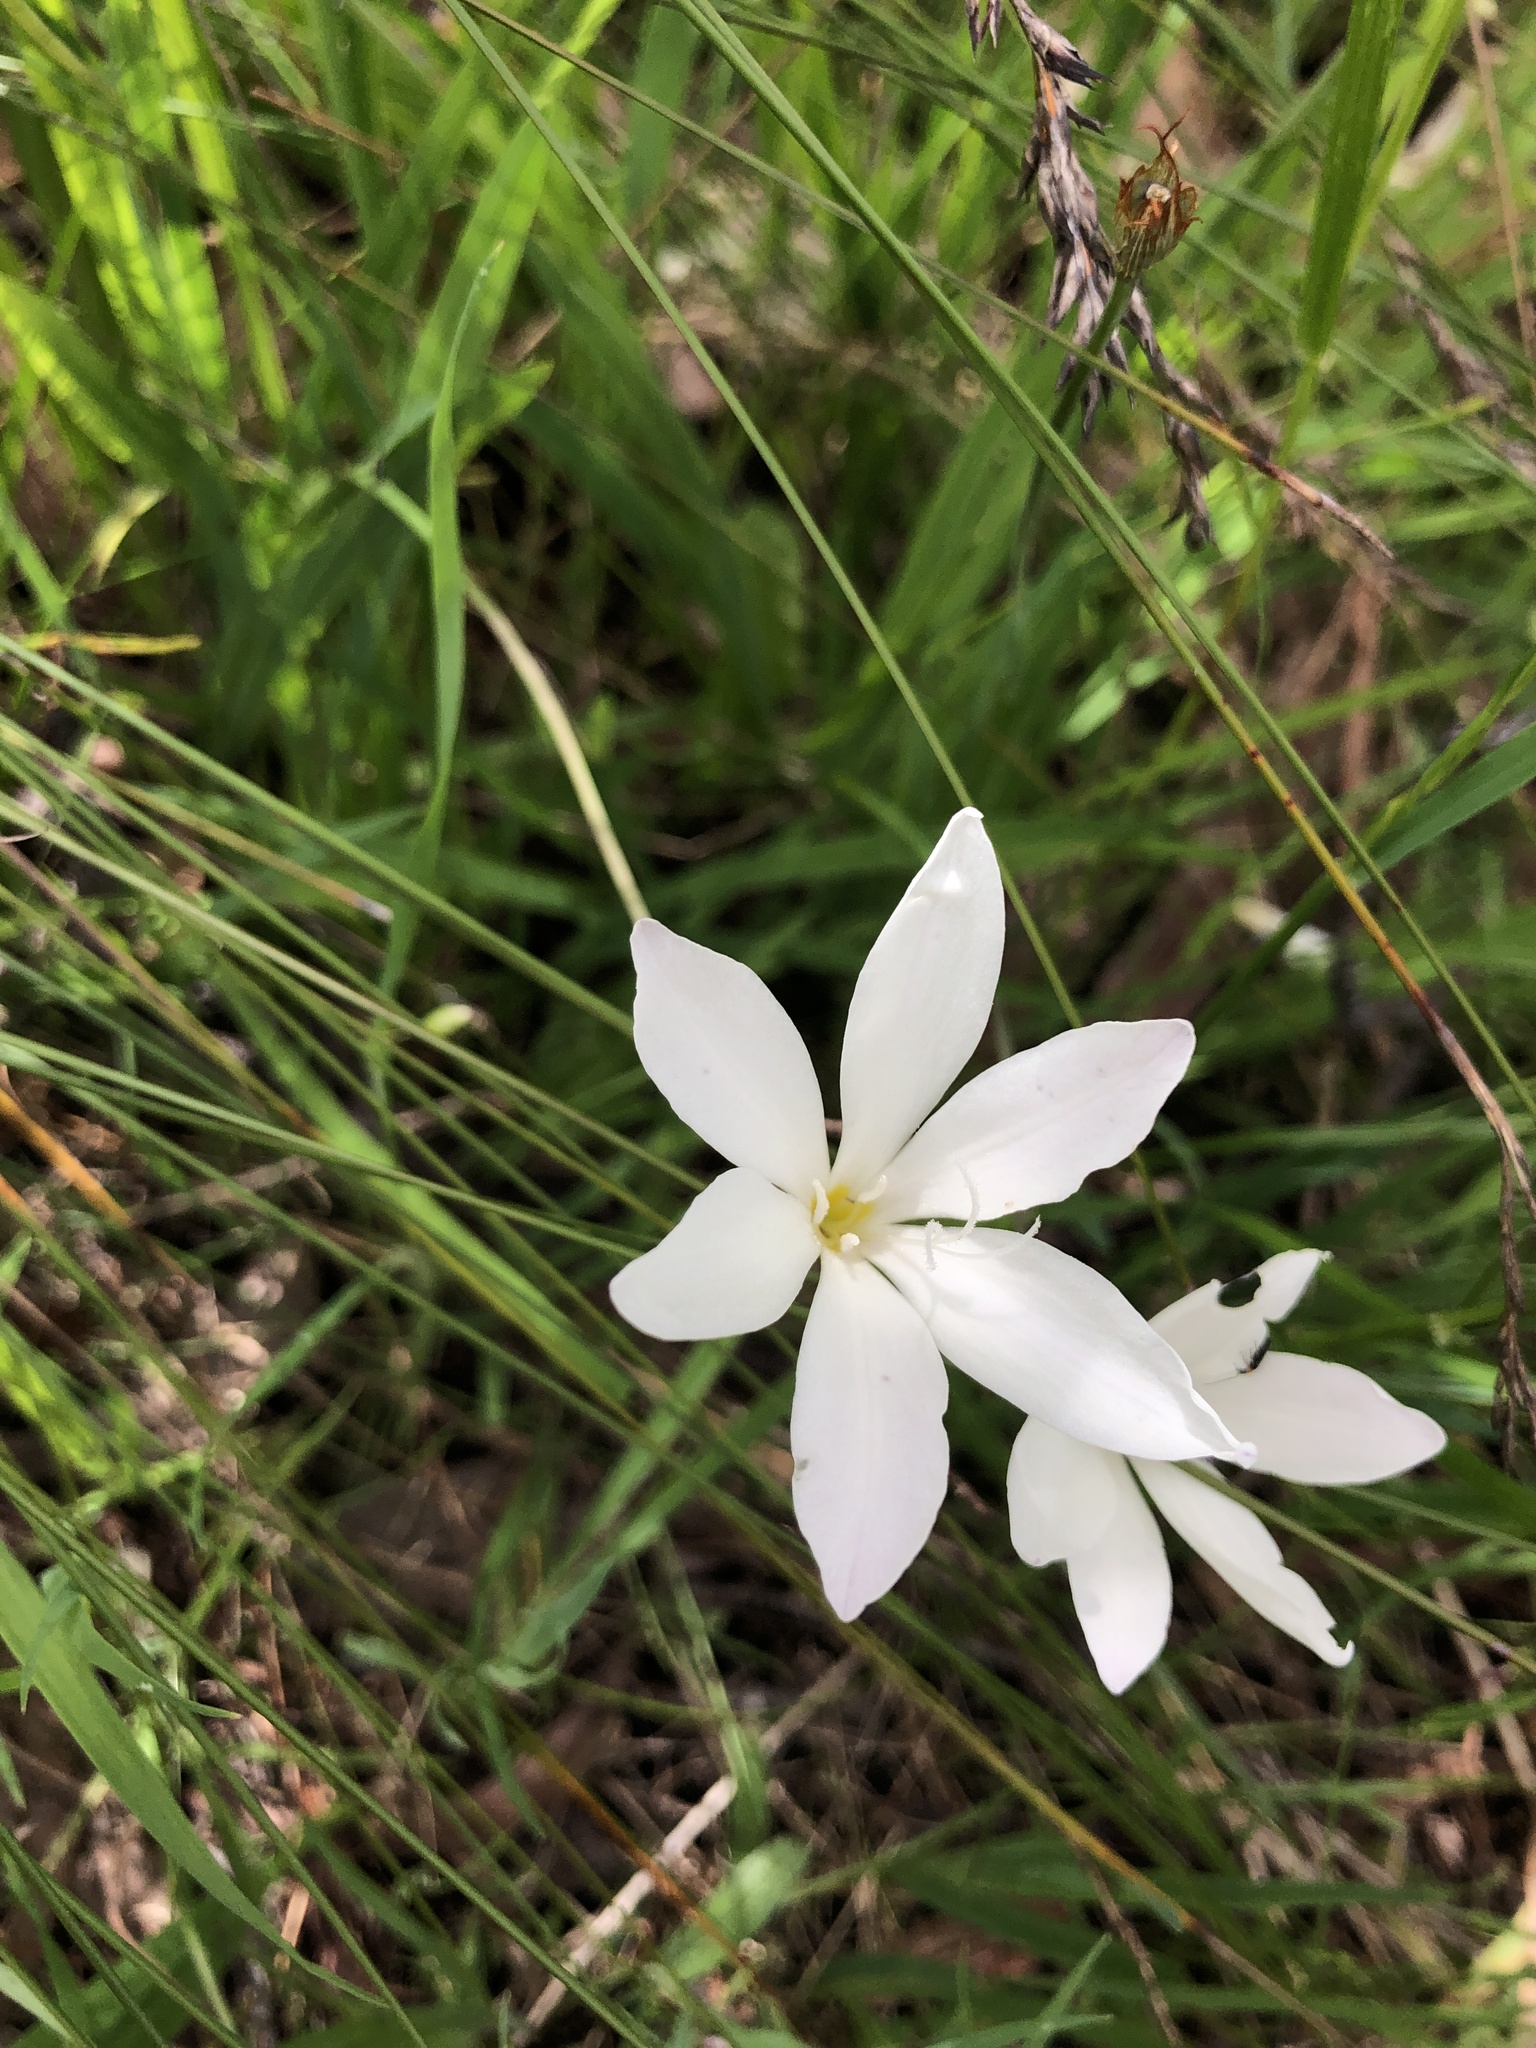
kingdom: Plantae
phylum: Tracheophyta
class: Liliopsida
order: Asparagales
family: Iridaceae
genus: Sparaxis
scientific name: Sparaxis bulbifera
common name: Harlequin-flower
